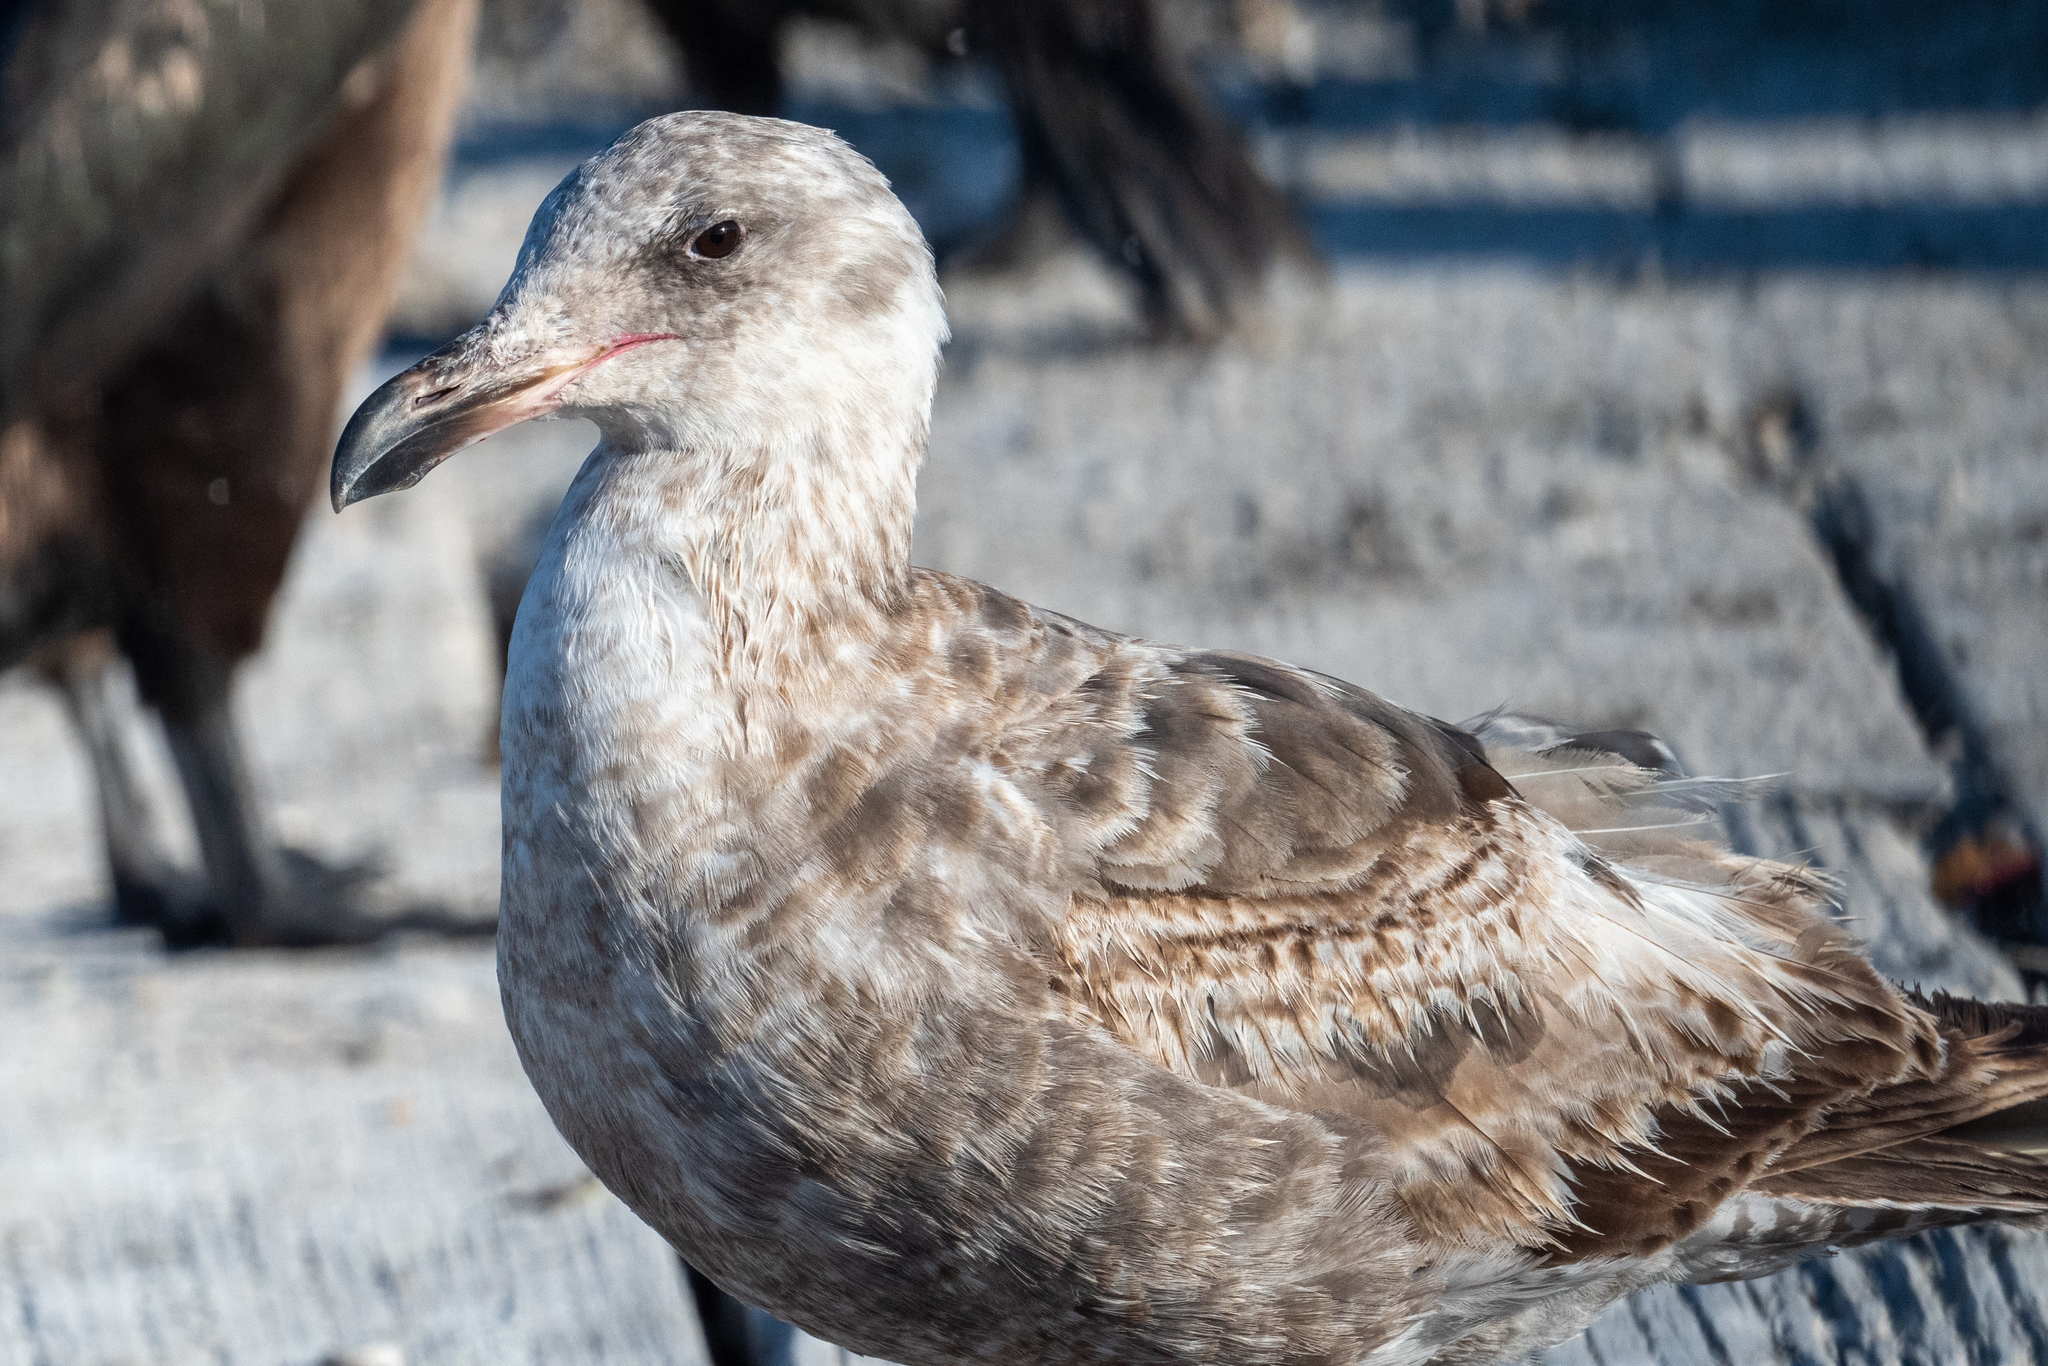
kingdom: Animalia
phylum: Chordata
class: Aves
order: Charadriiformes
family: Laridae
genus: Larus
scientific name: Larus occidentalis
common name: Western gull
